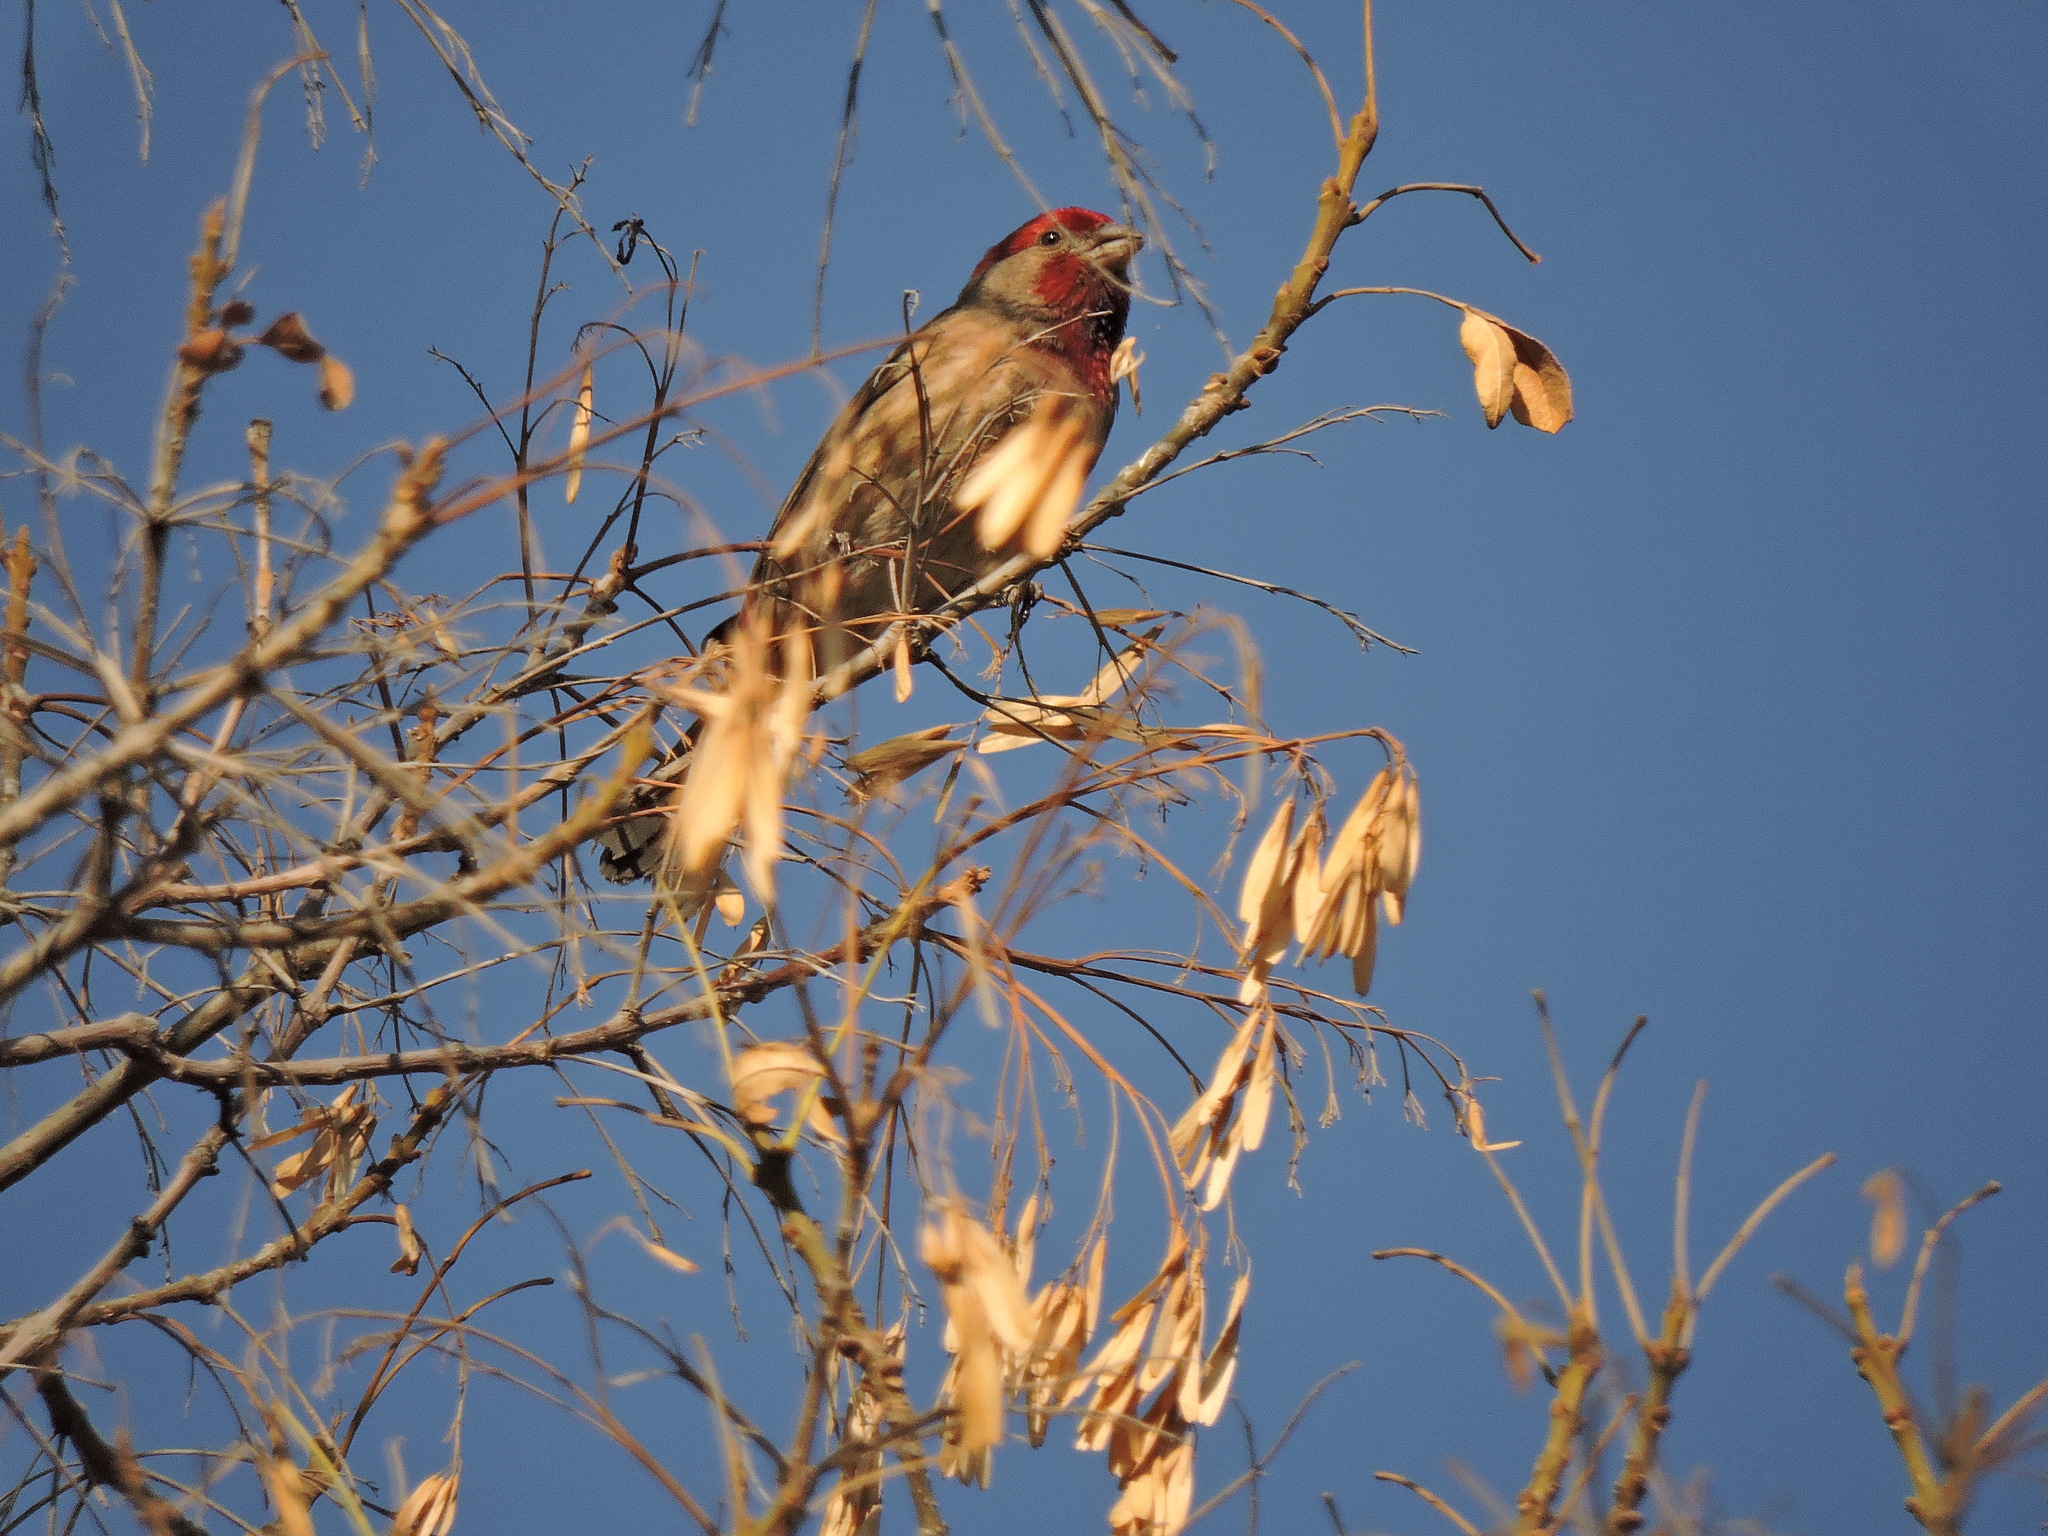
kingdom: Animalia
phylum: Chordata
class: Aves
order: Passeriformes
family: Fringillidae
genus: Haemorhous
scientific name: Haemorhous mexicanus
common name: House finch
